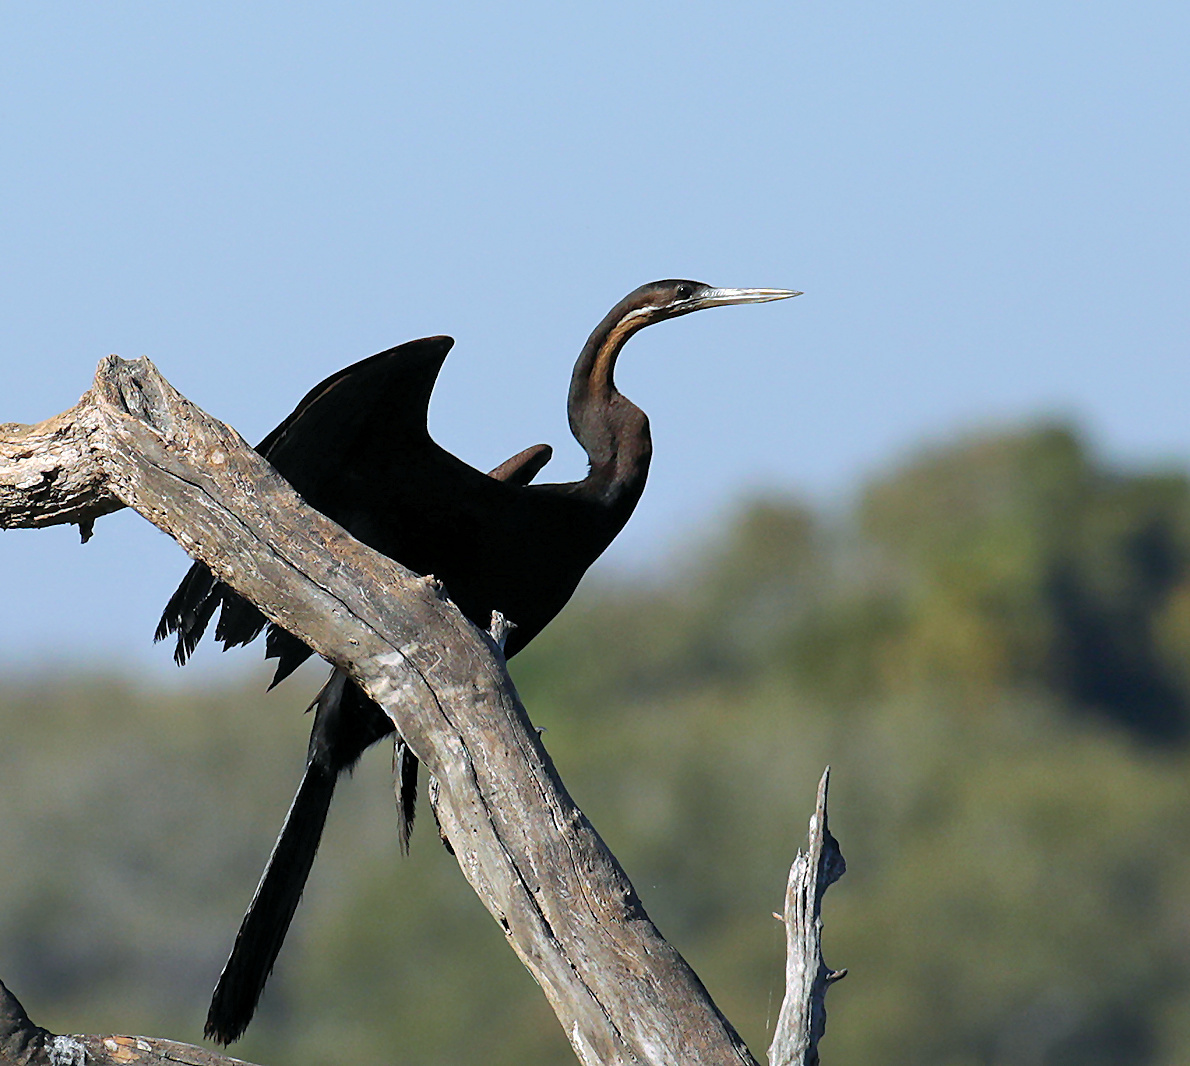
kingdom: Animalia
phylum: Chordata
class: Aves
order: Suliformes
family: Anhingidae
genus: Anhinga
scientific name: Anhinga rufa
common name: African darter
